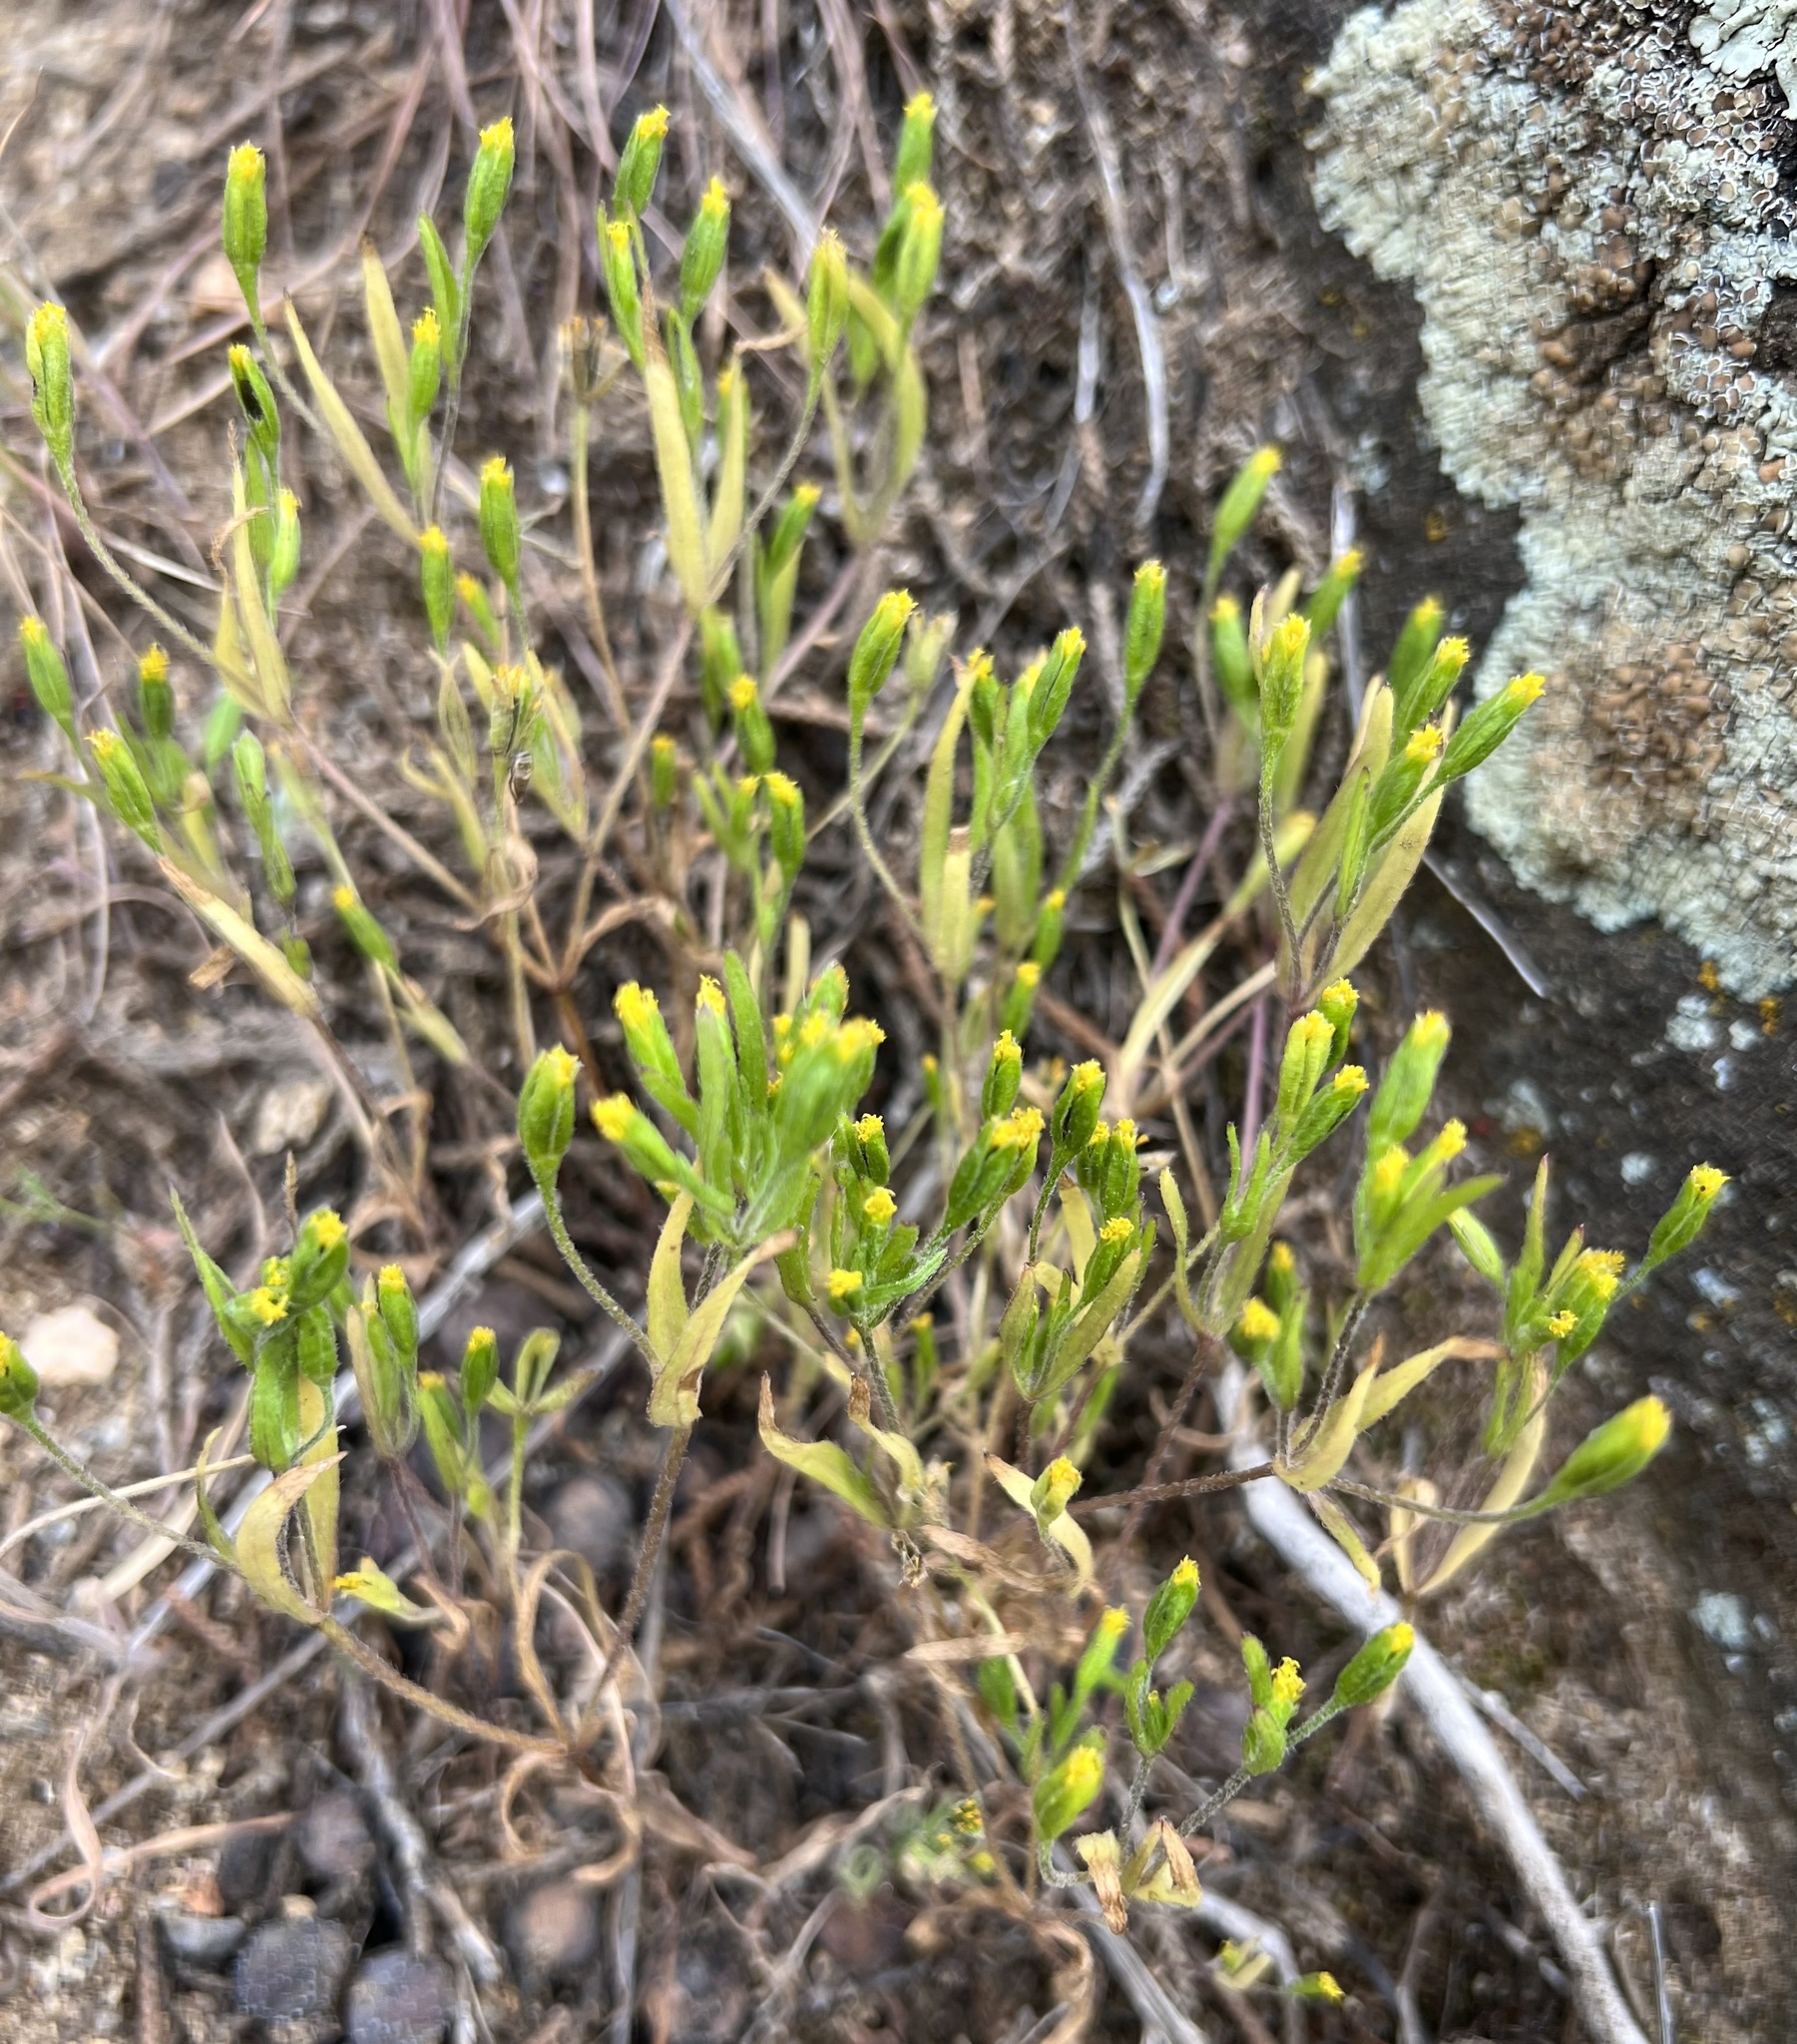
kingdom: Plantae
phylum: Tracheophyta
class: Magnoliopsida
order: Asterales
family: Asteraceae
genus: Lasthenia
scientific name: Lasthenia microglossa
